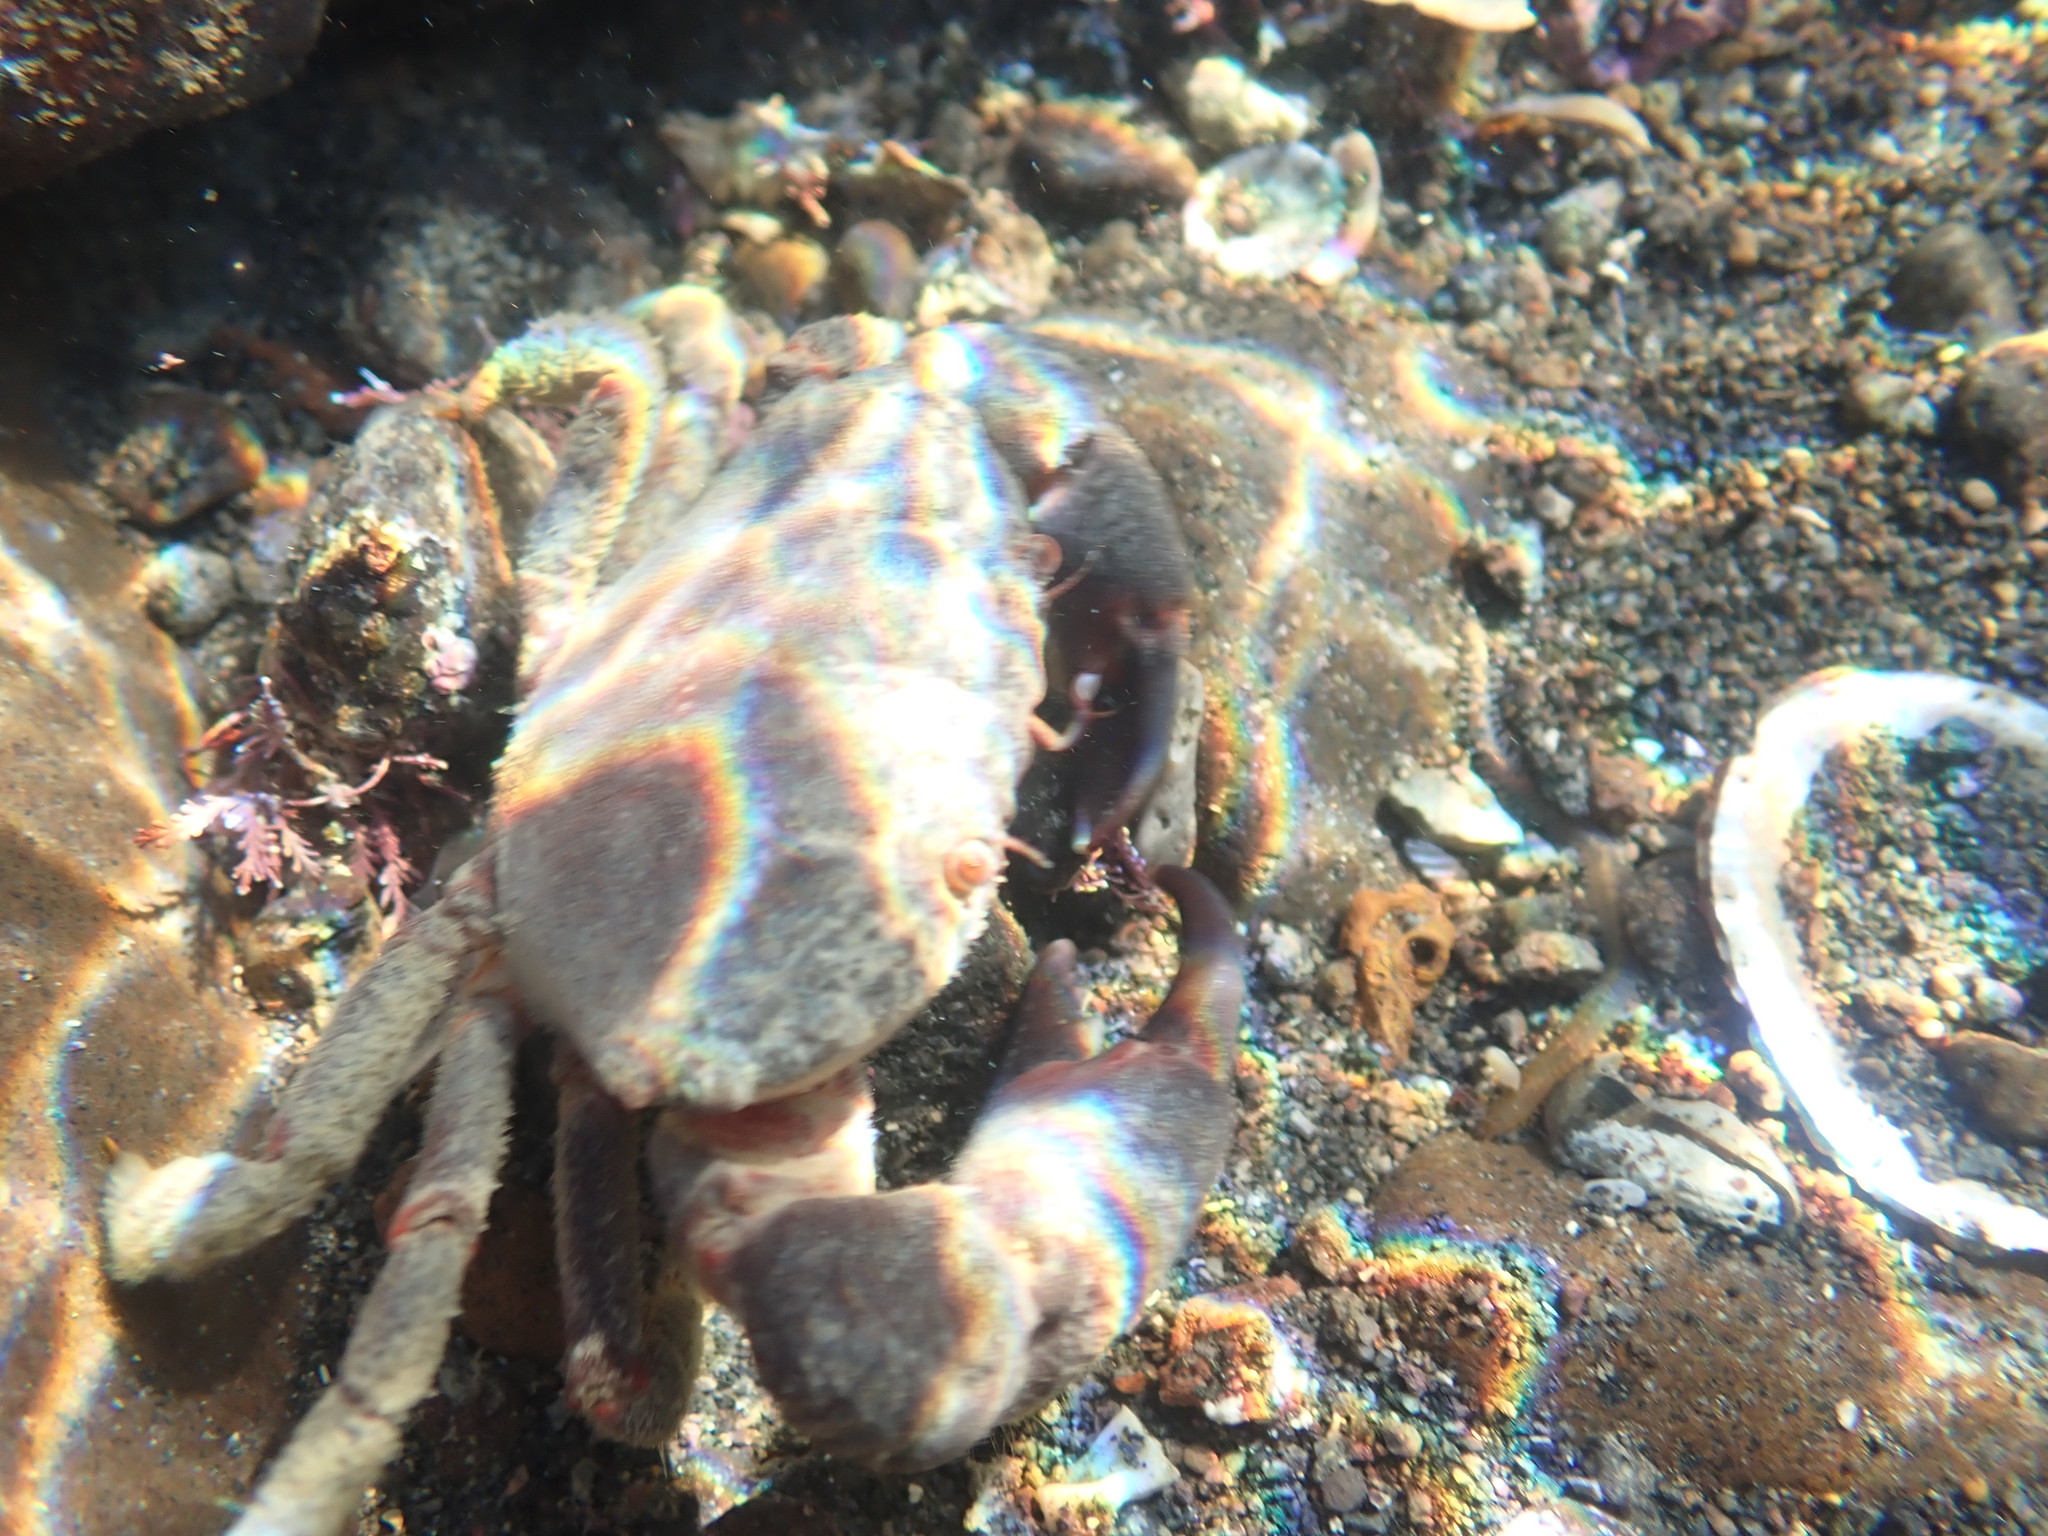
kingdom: Animalia
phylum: Arthropoda
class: Malacostraca
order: Decapoda
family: Oziidae
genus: Ozius
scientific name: Ozius deplanatus
